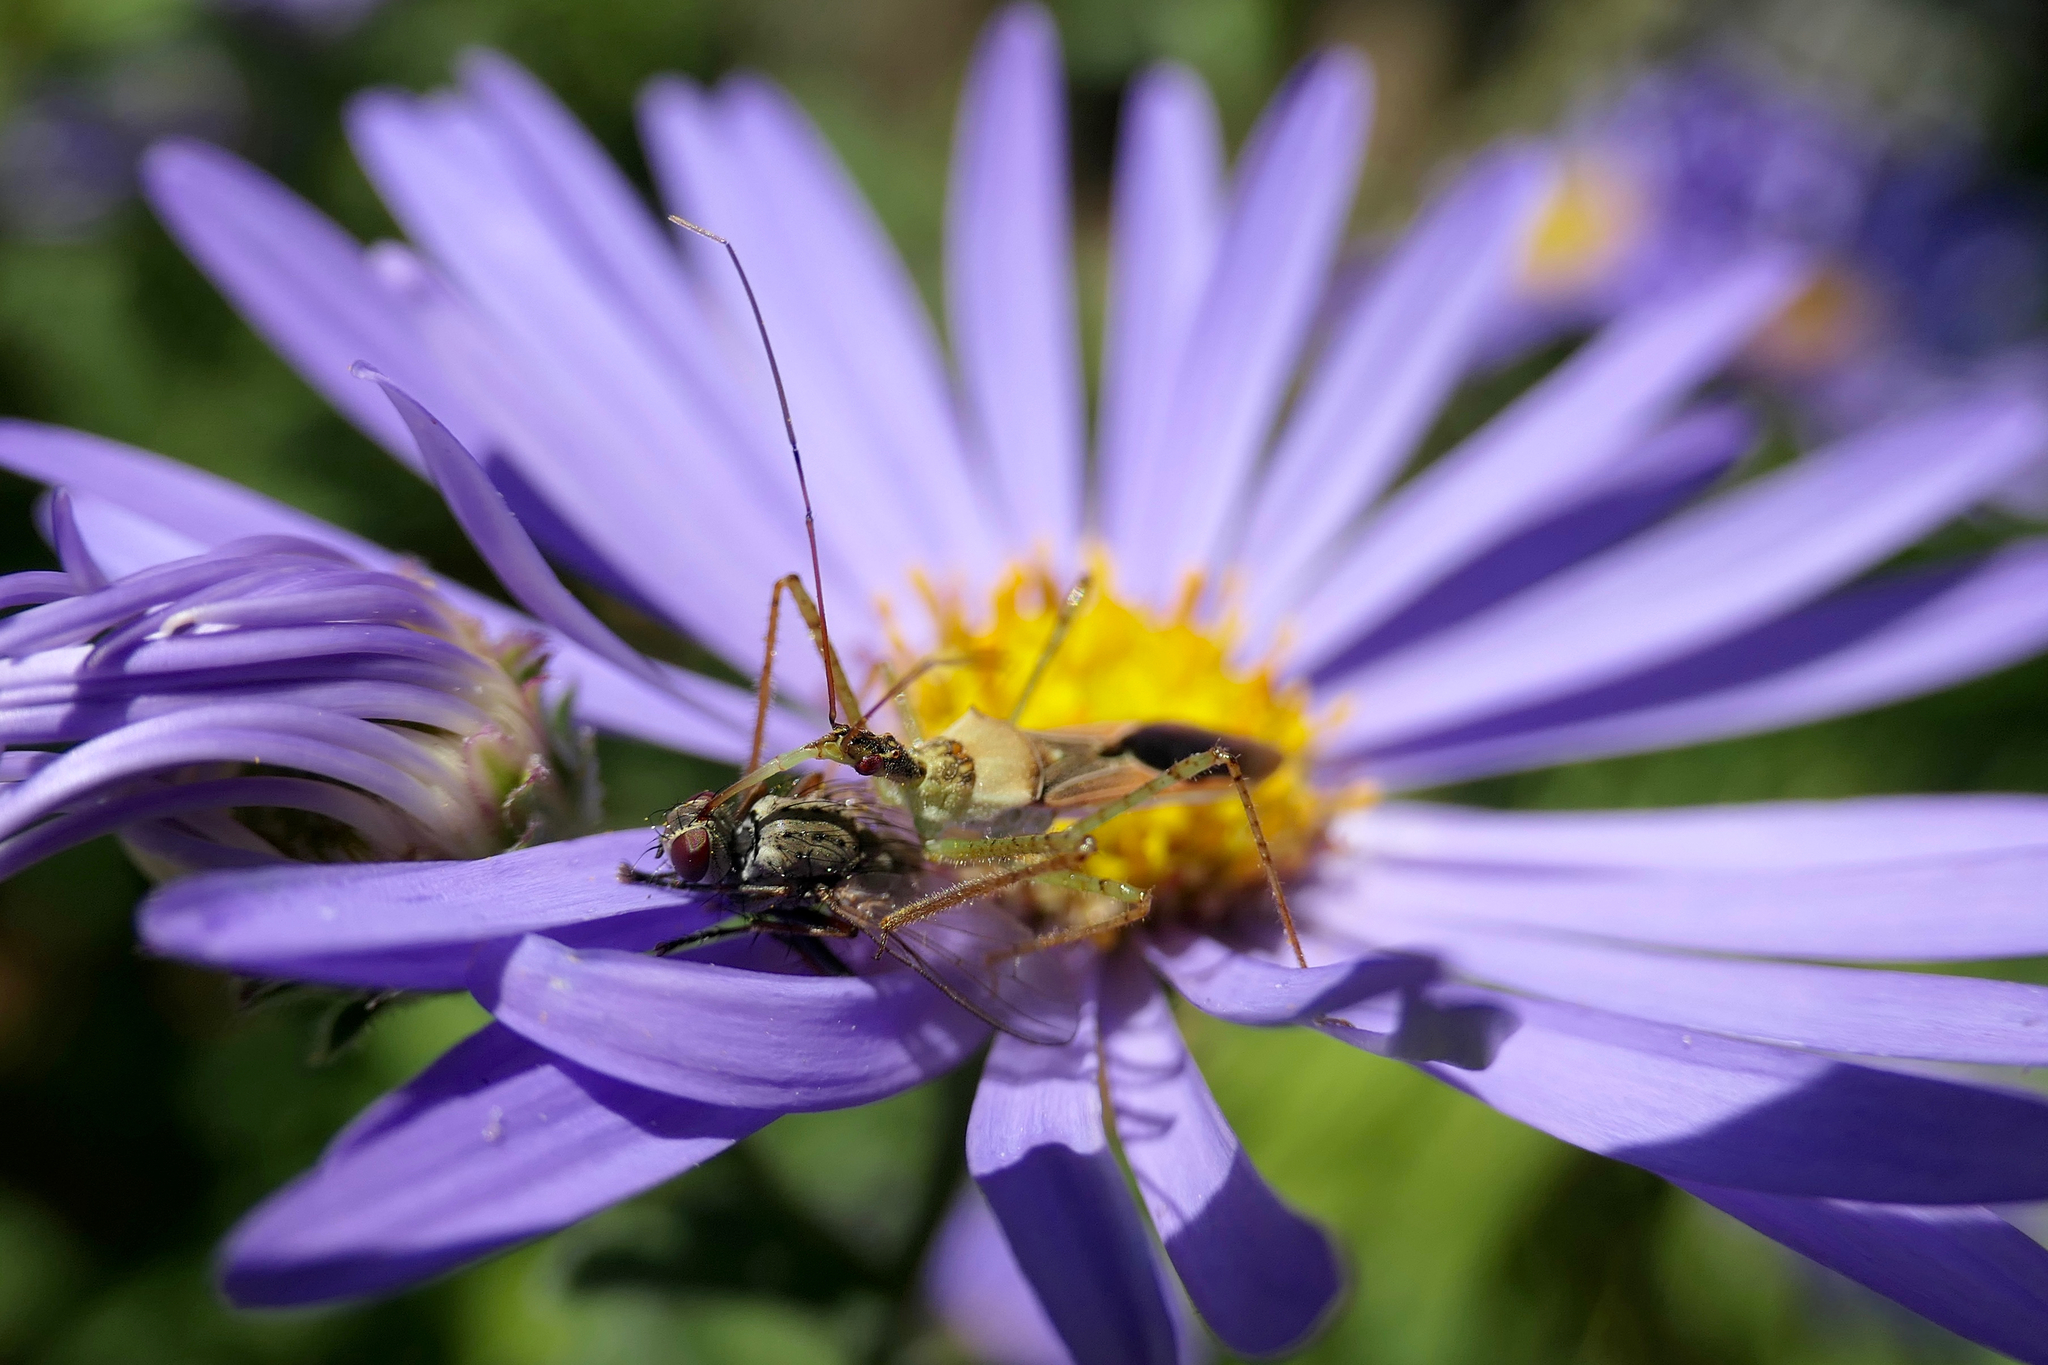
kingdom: Animalia
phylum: Arthropoda
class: Insecta
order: Hemiptera
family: Reduviidae
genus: Zelus
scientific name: Zelus renardii
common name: Assassin bug
